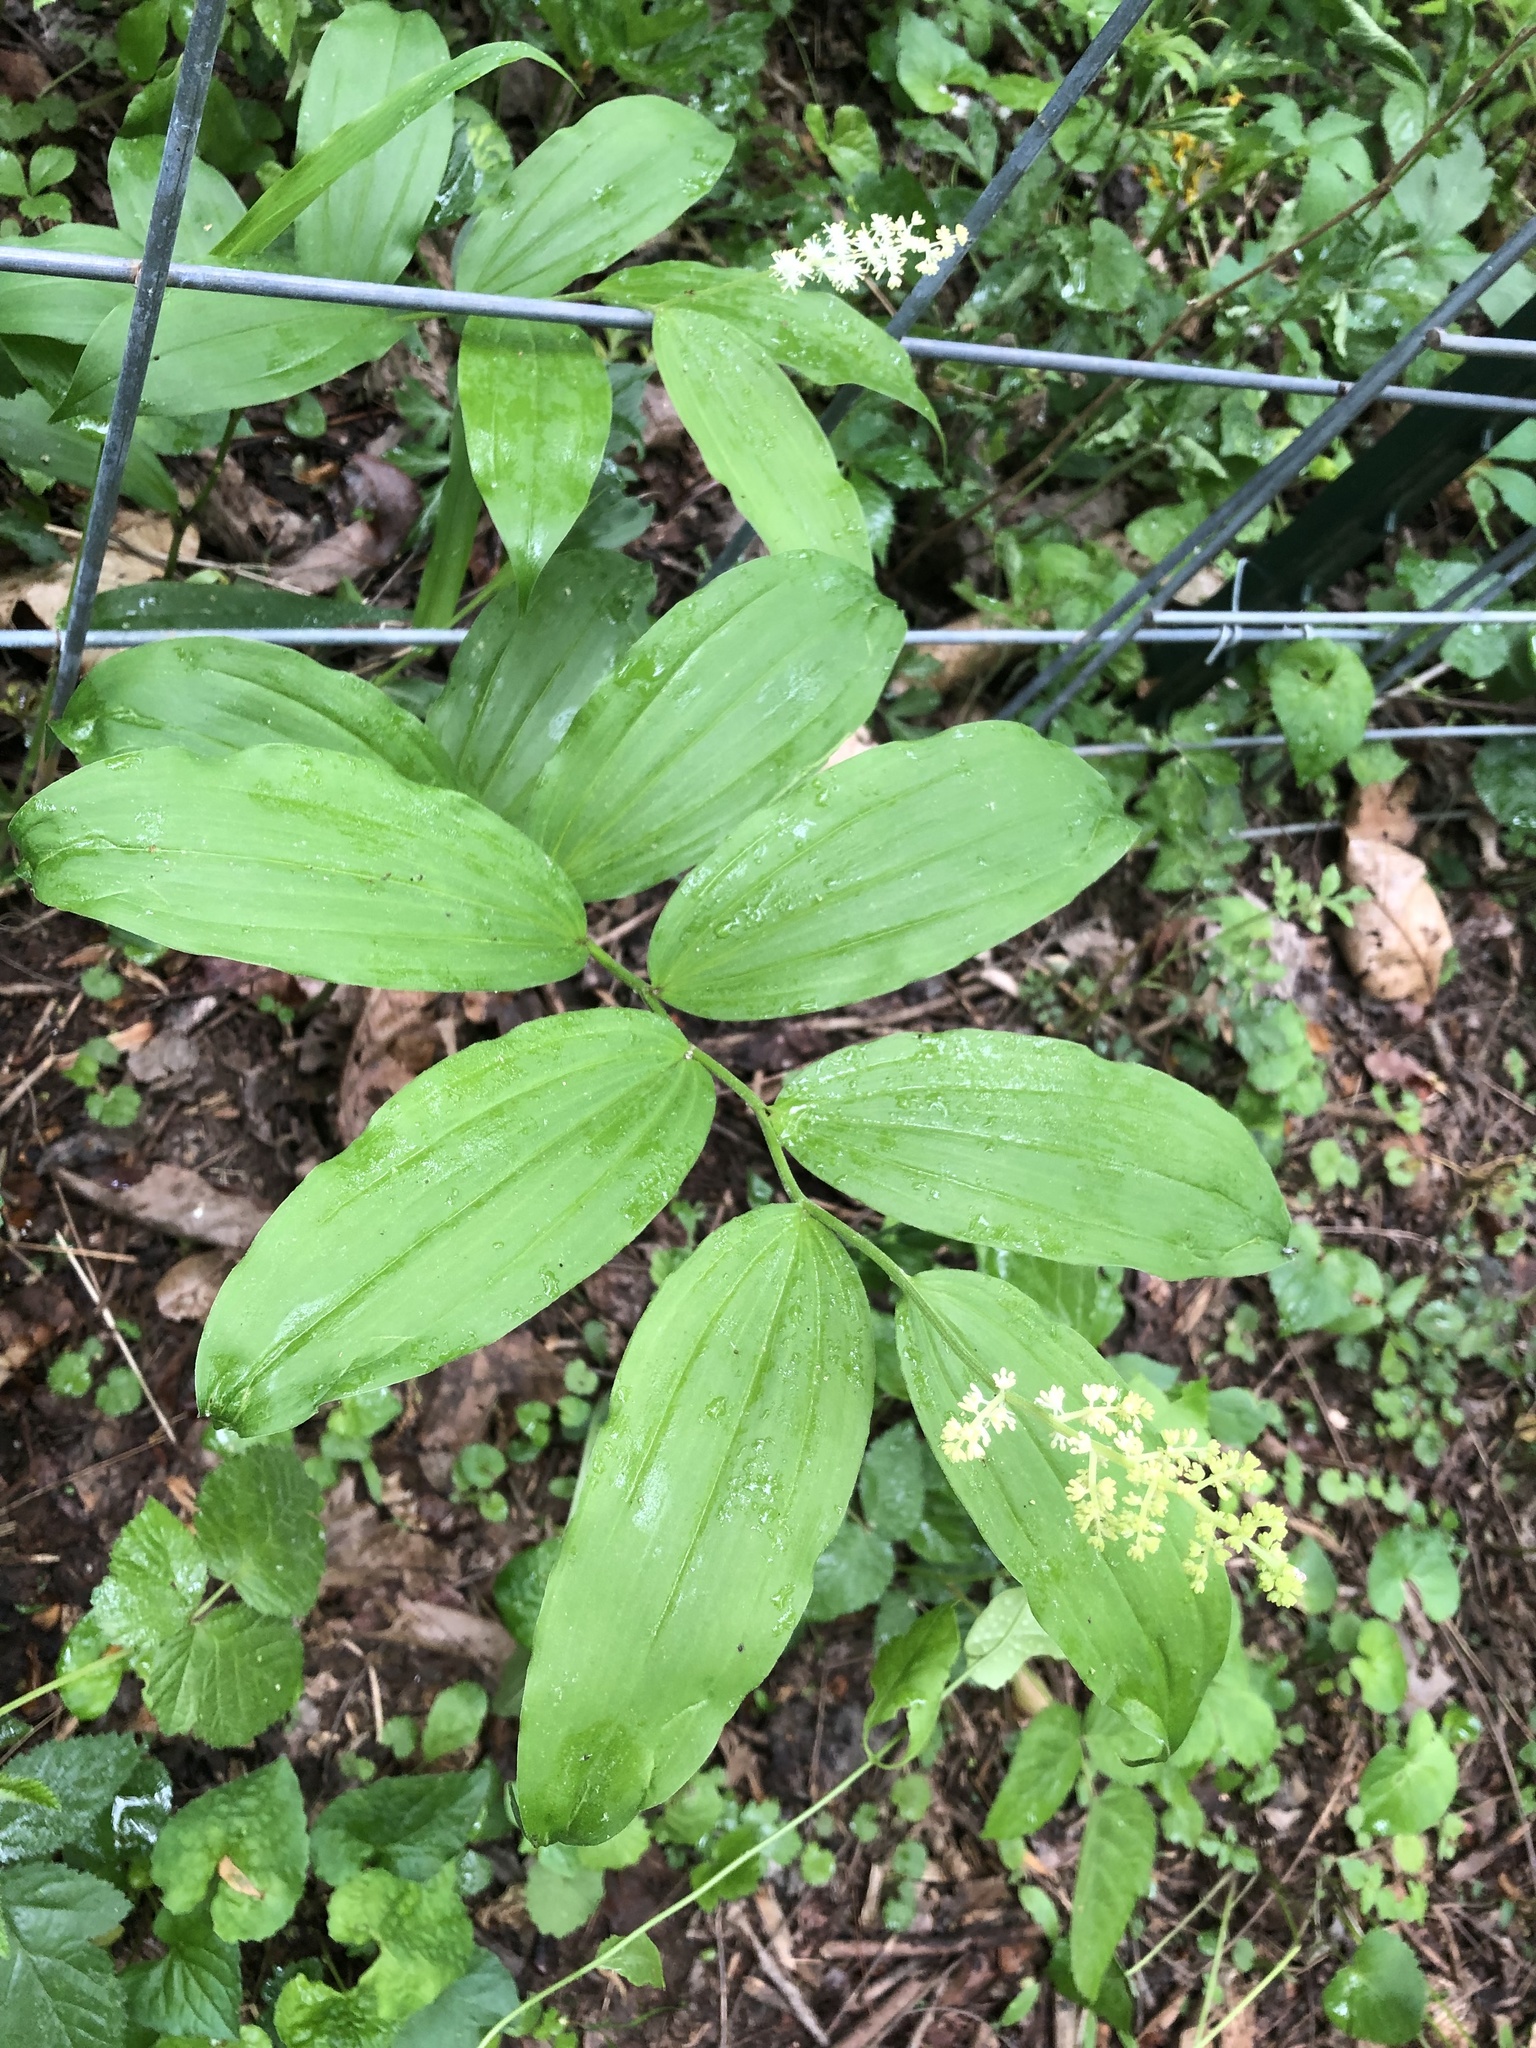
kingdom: Plantae
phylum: Tracheophyta
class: Liliopsida
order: Asparagales
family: Asparagaceae
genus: Maianthemum
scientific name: Maianthemum racemosum
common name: False spikenard
